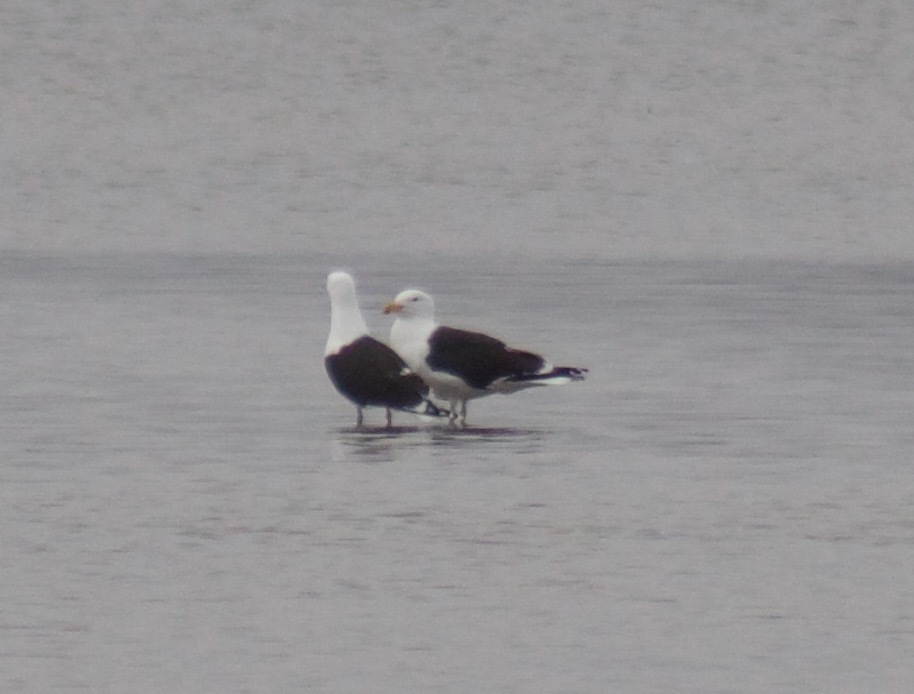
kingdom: Animalia
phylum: Chordata
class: Aves
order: Charadriiformes
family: Laridae
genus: Larus
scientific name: Larus marinus
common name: Great black-backed gull
